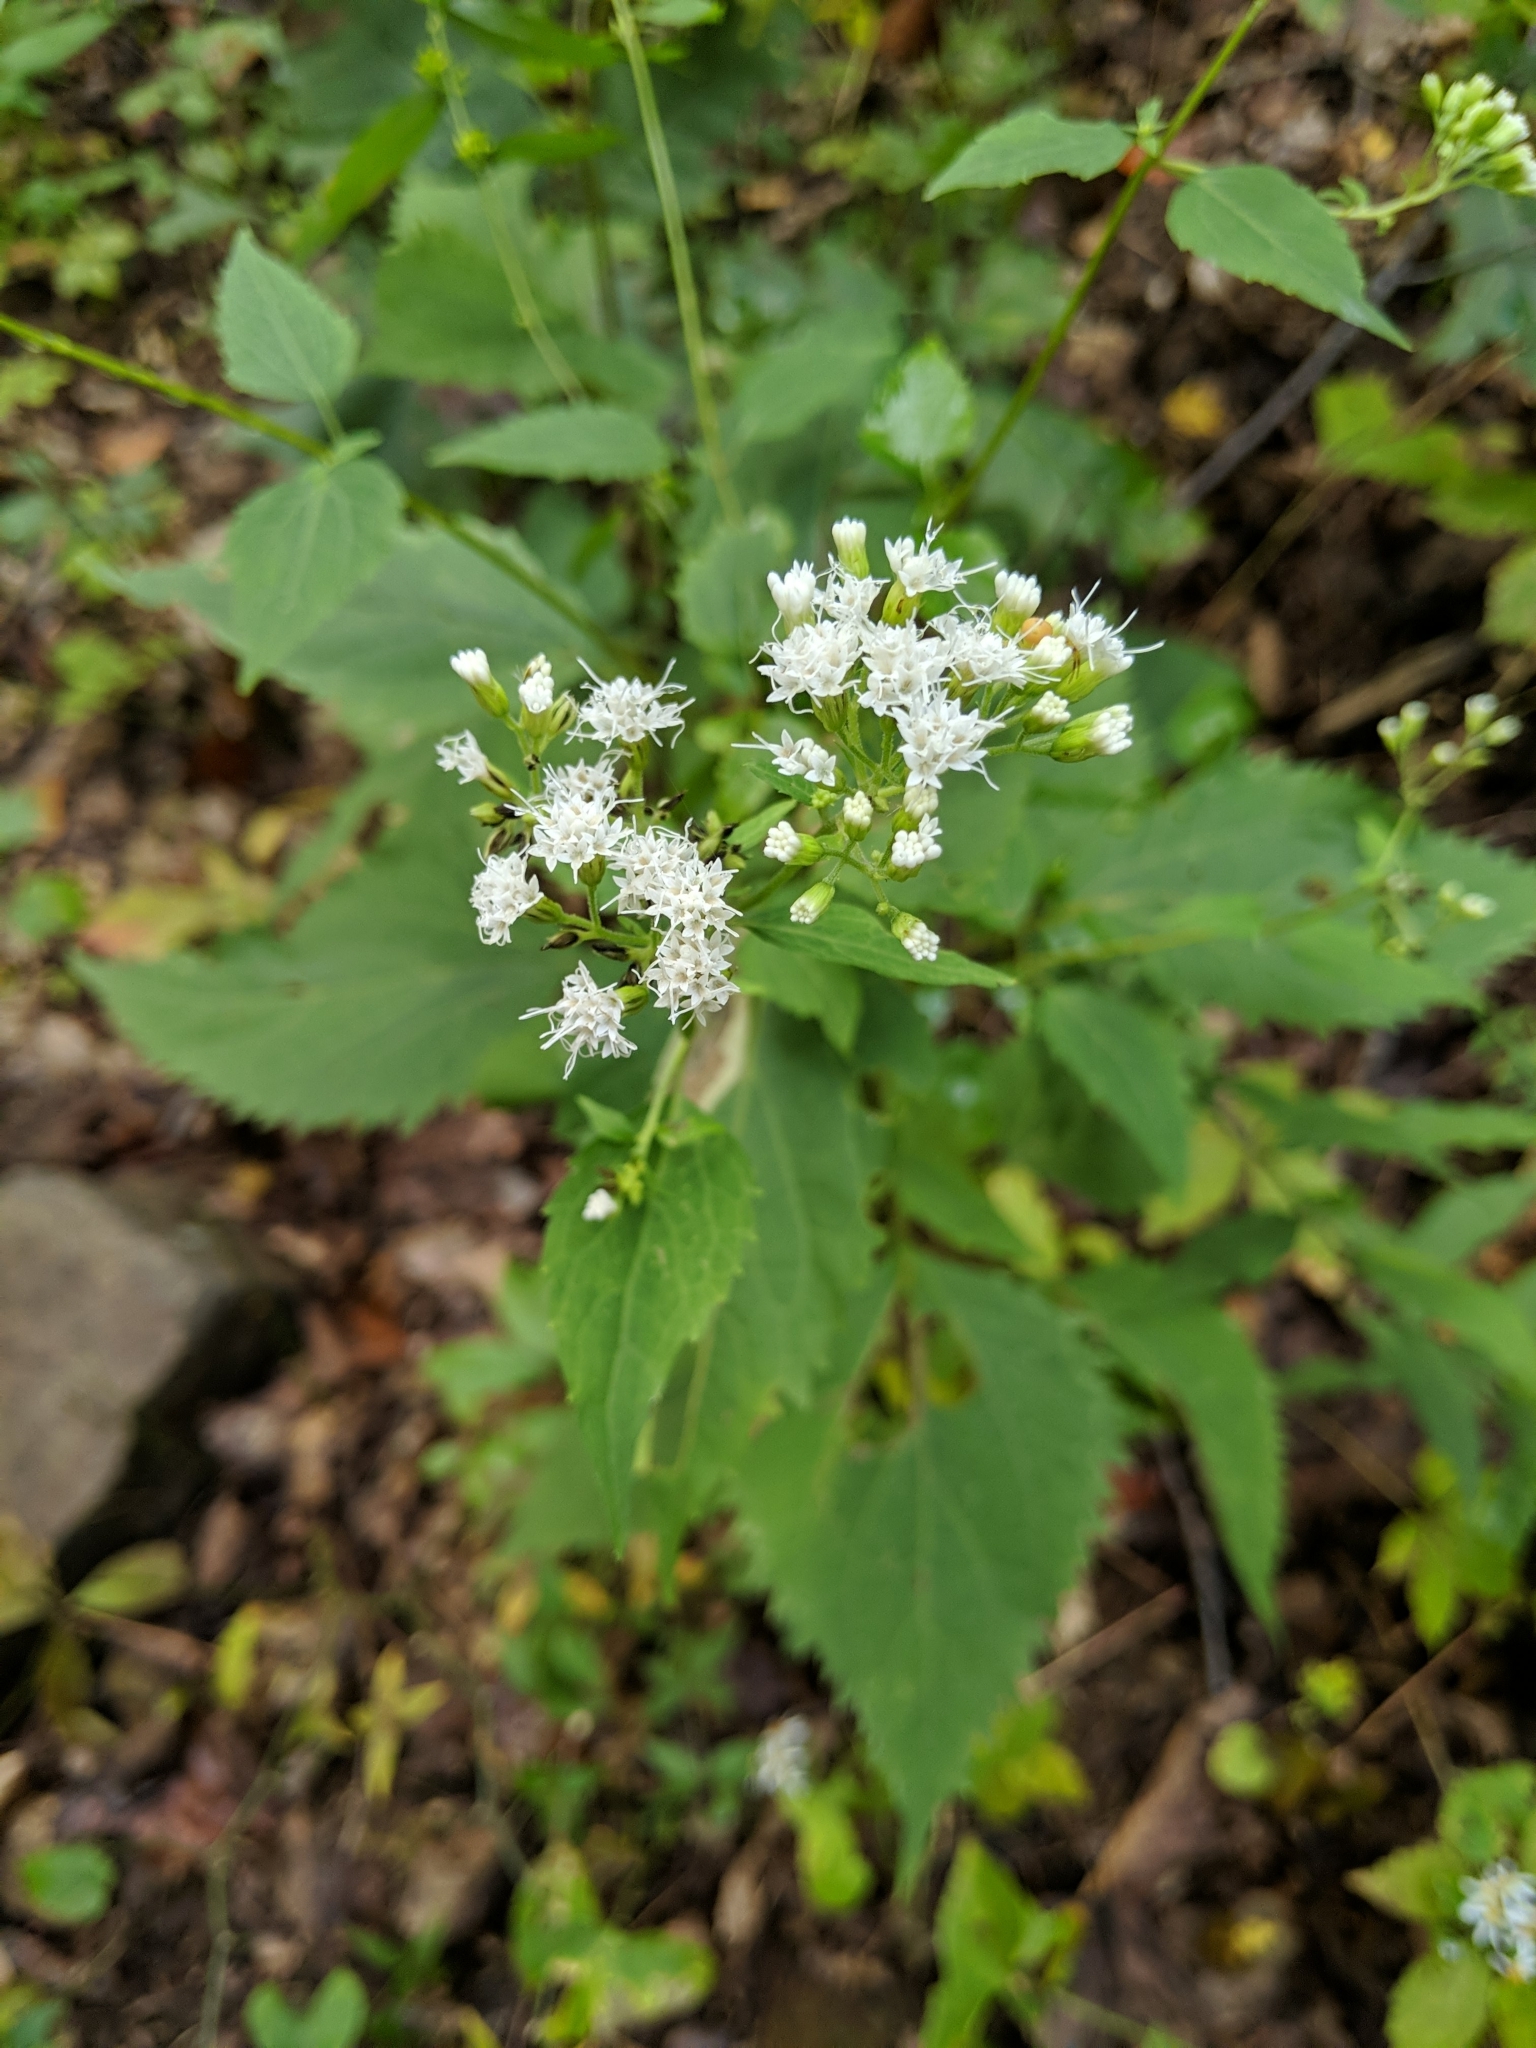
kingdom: Plantae
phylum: Tracheophyta
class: Magnoliopsida
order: Asterales
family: Asteraceae
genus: Ageratina
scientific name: Ageratina altissima
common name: White snakeroot
